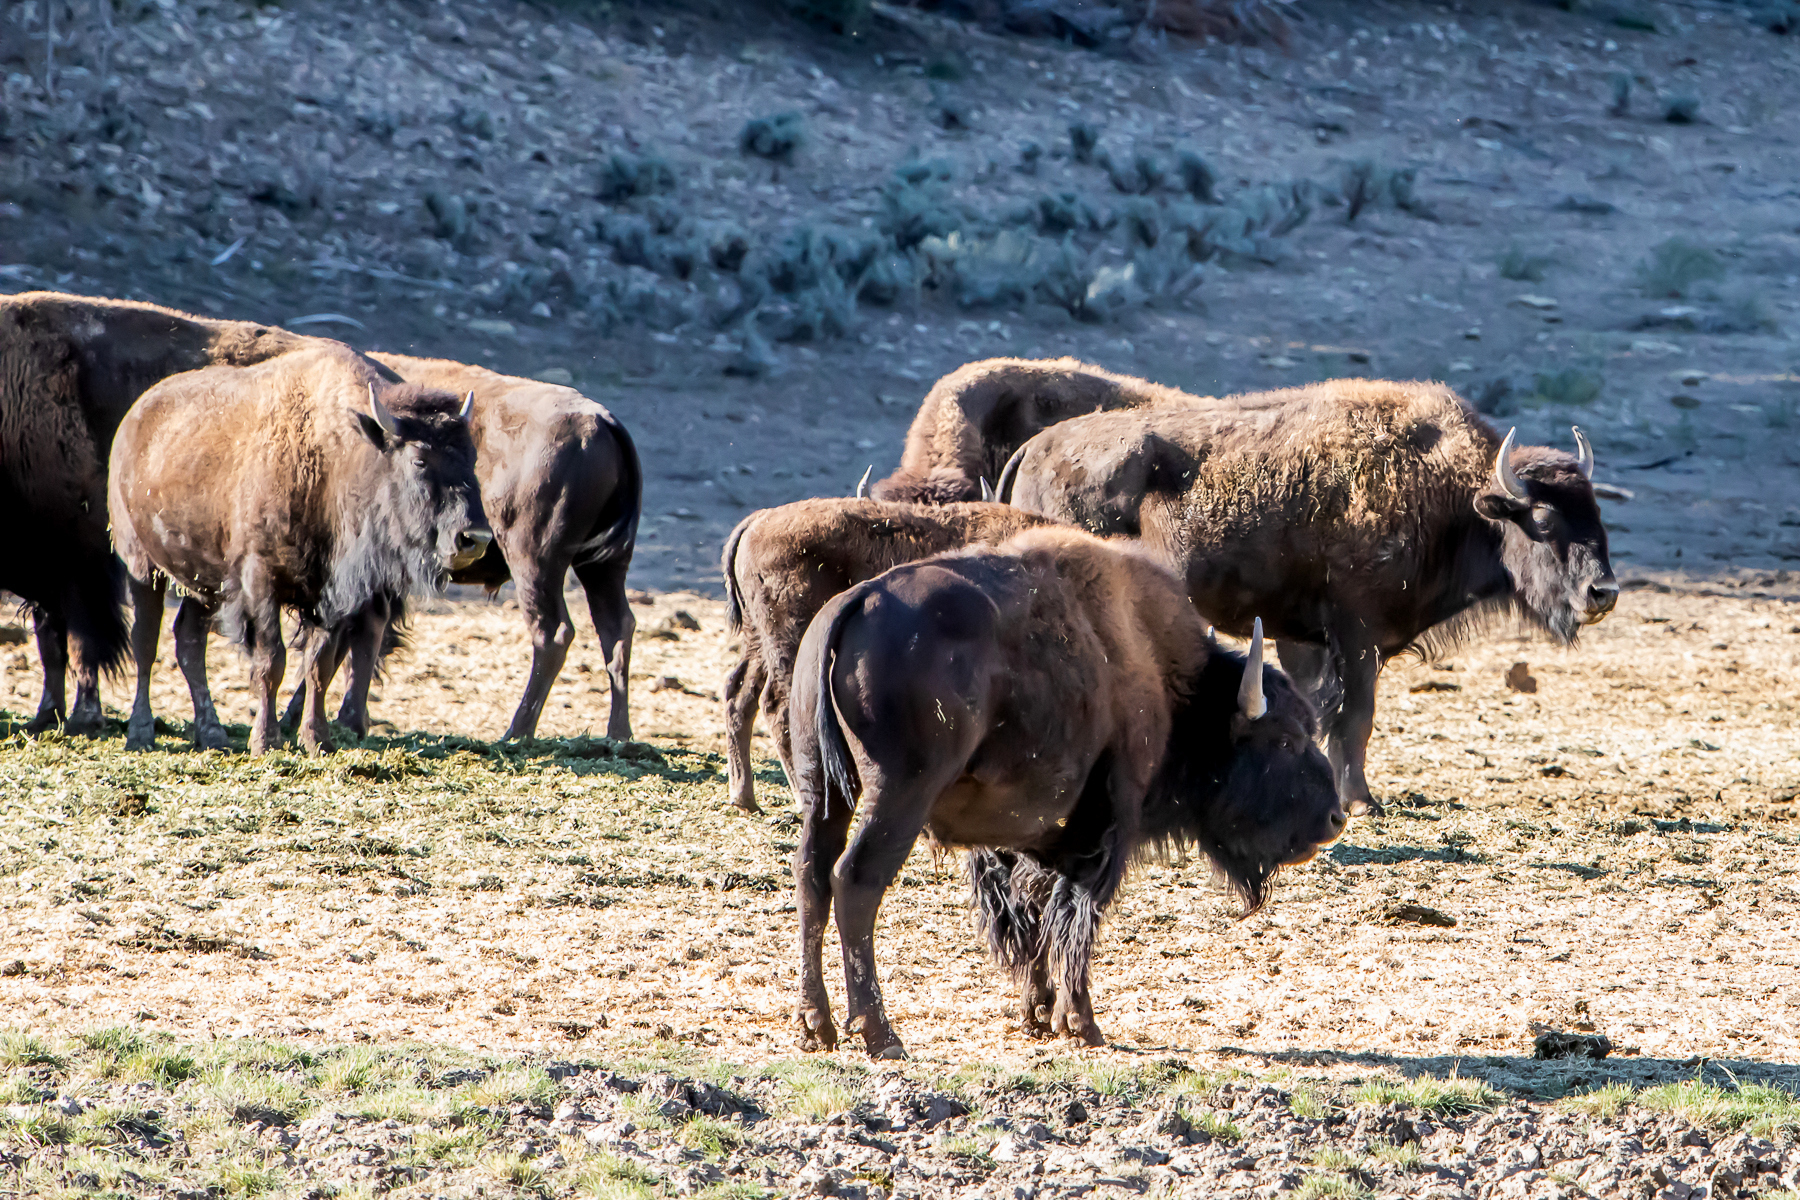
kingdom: Animalia
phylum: Chordata
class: Mammalia
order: Artiodactyla
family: Bovidae
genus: Bison
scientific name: Bison bison
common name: American bison
